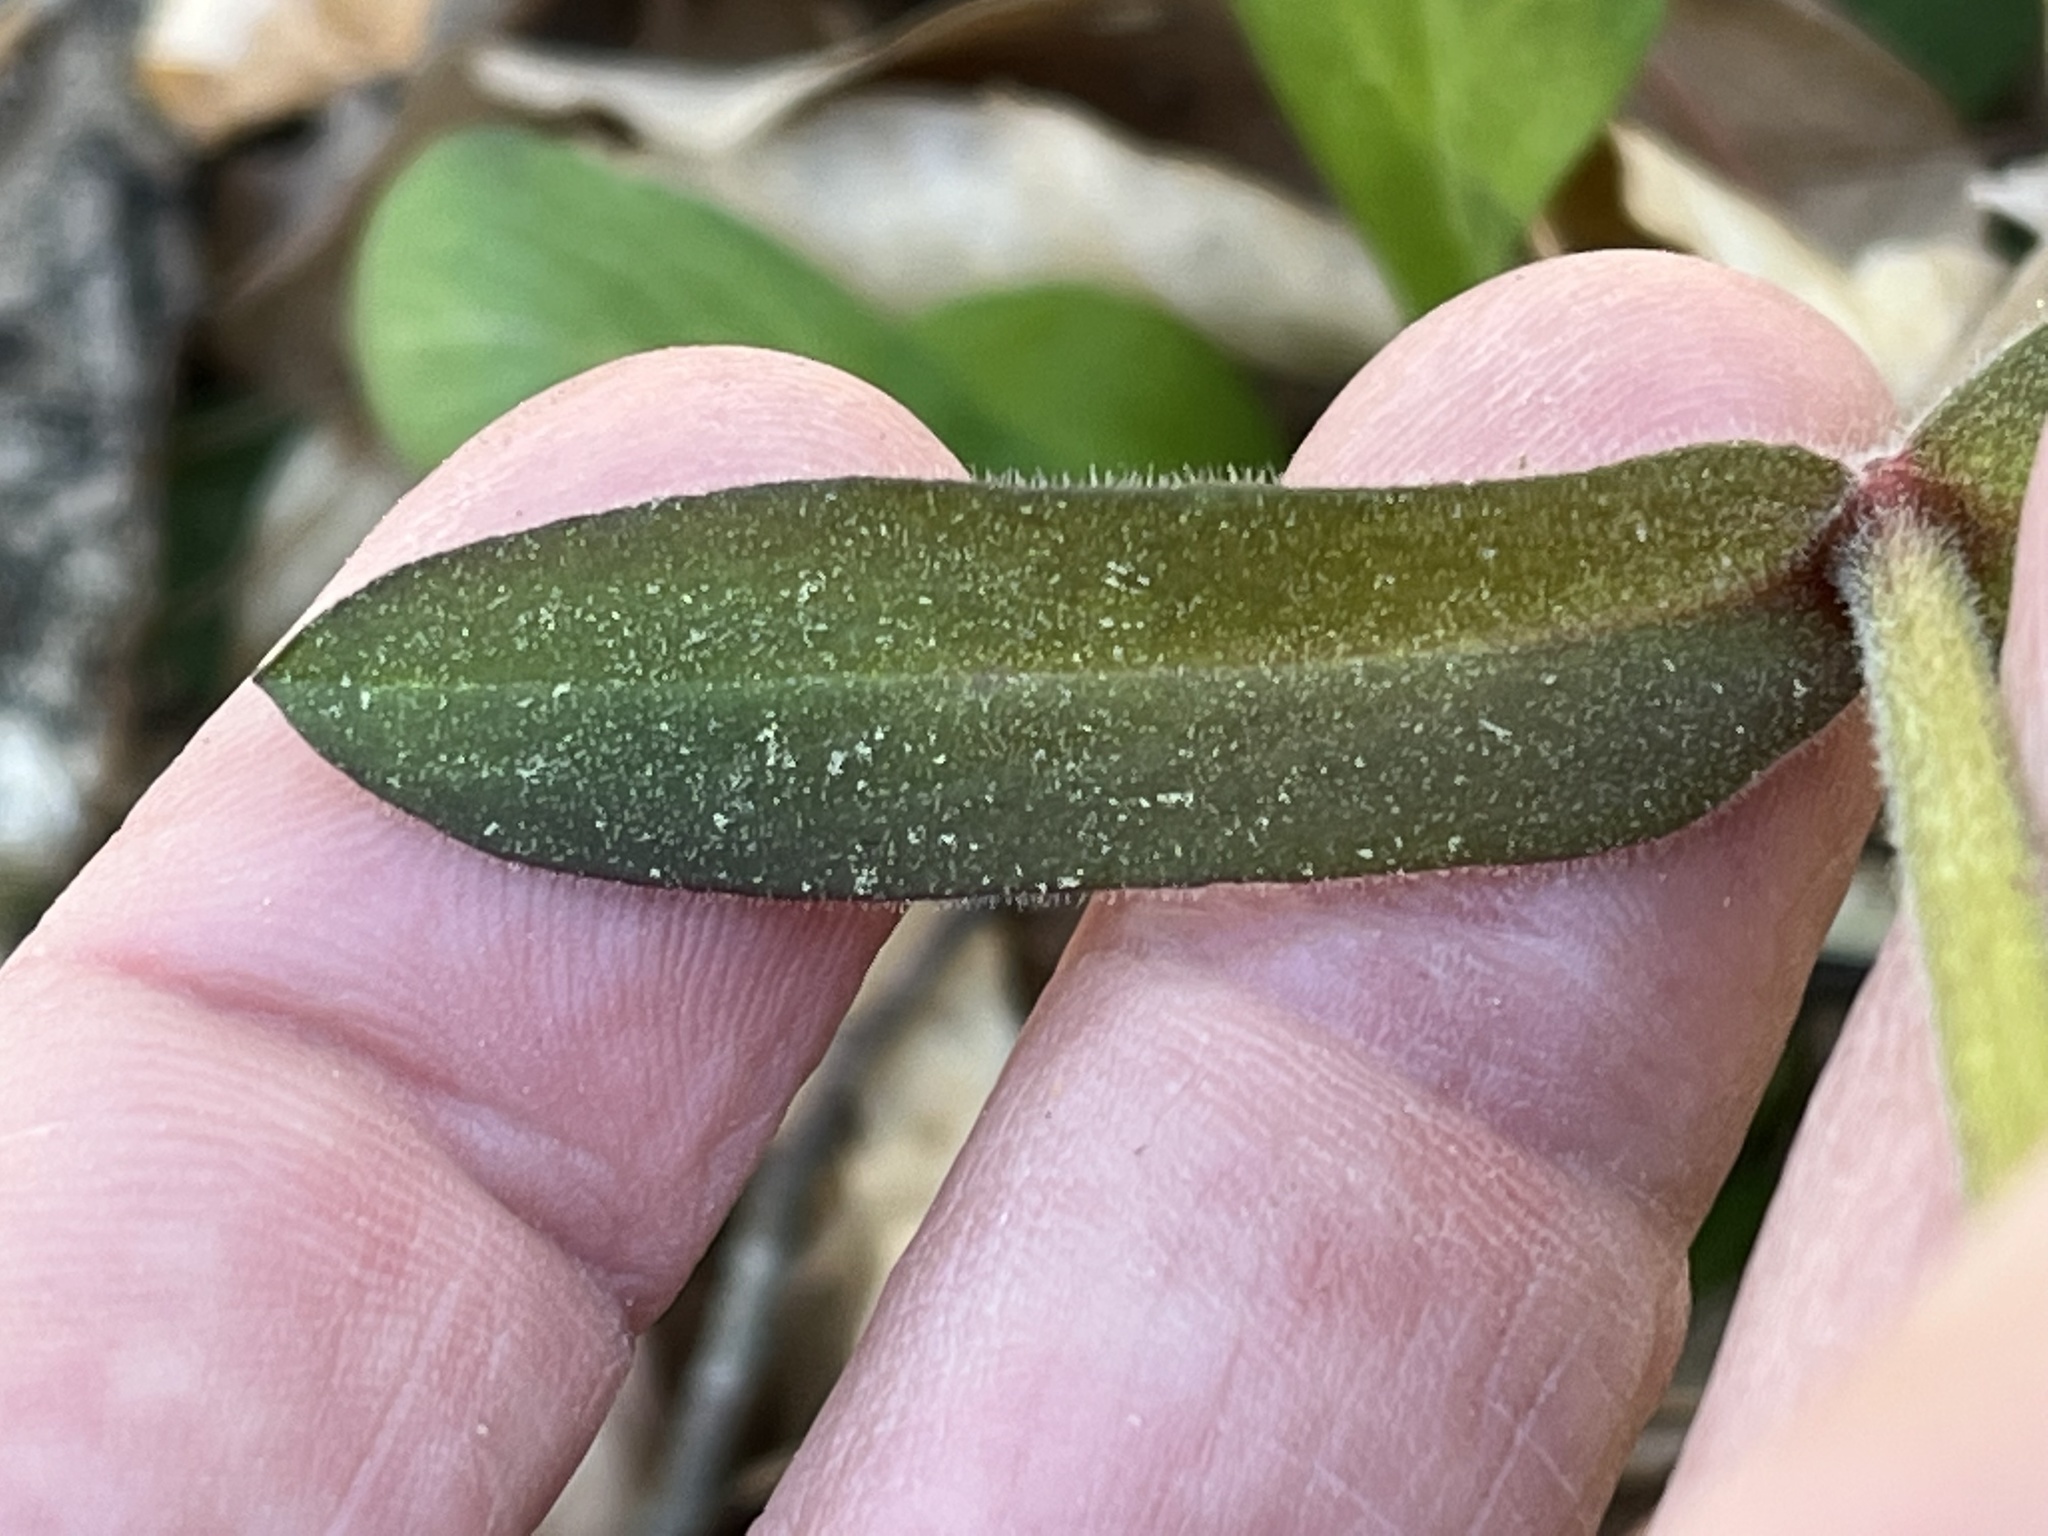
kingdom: Plantae
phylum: Tracheophyta
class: Magnoliopsida
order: Caryophyllales
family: Caryophyllaceae
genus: Silene
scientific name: Silene virginica
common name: Fire-pink
